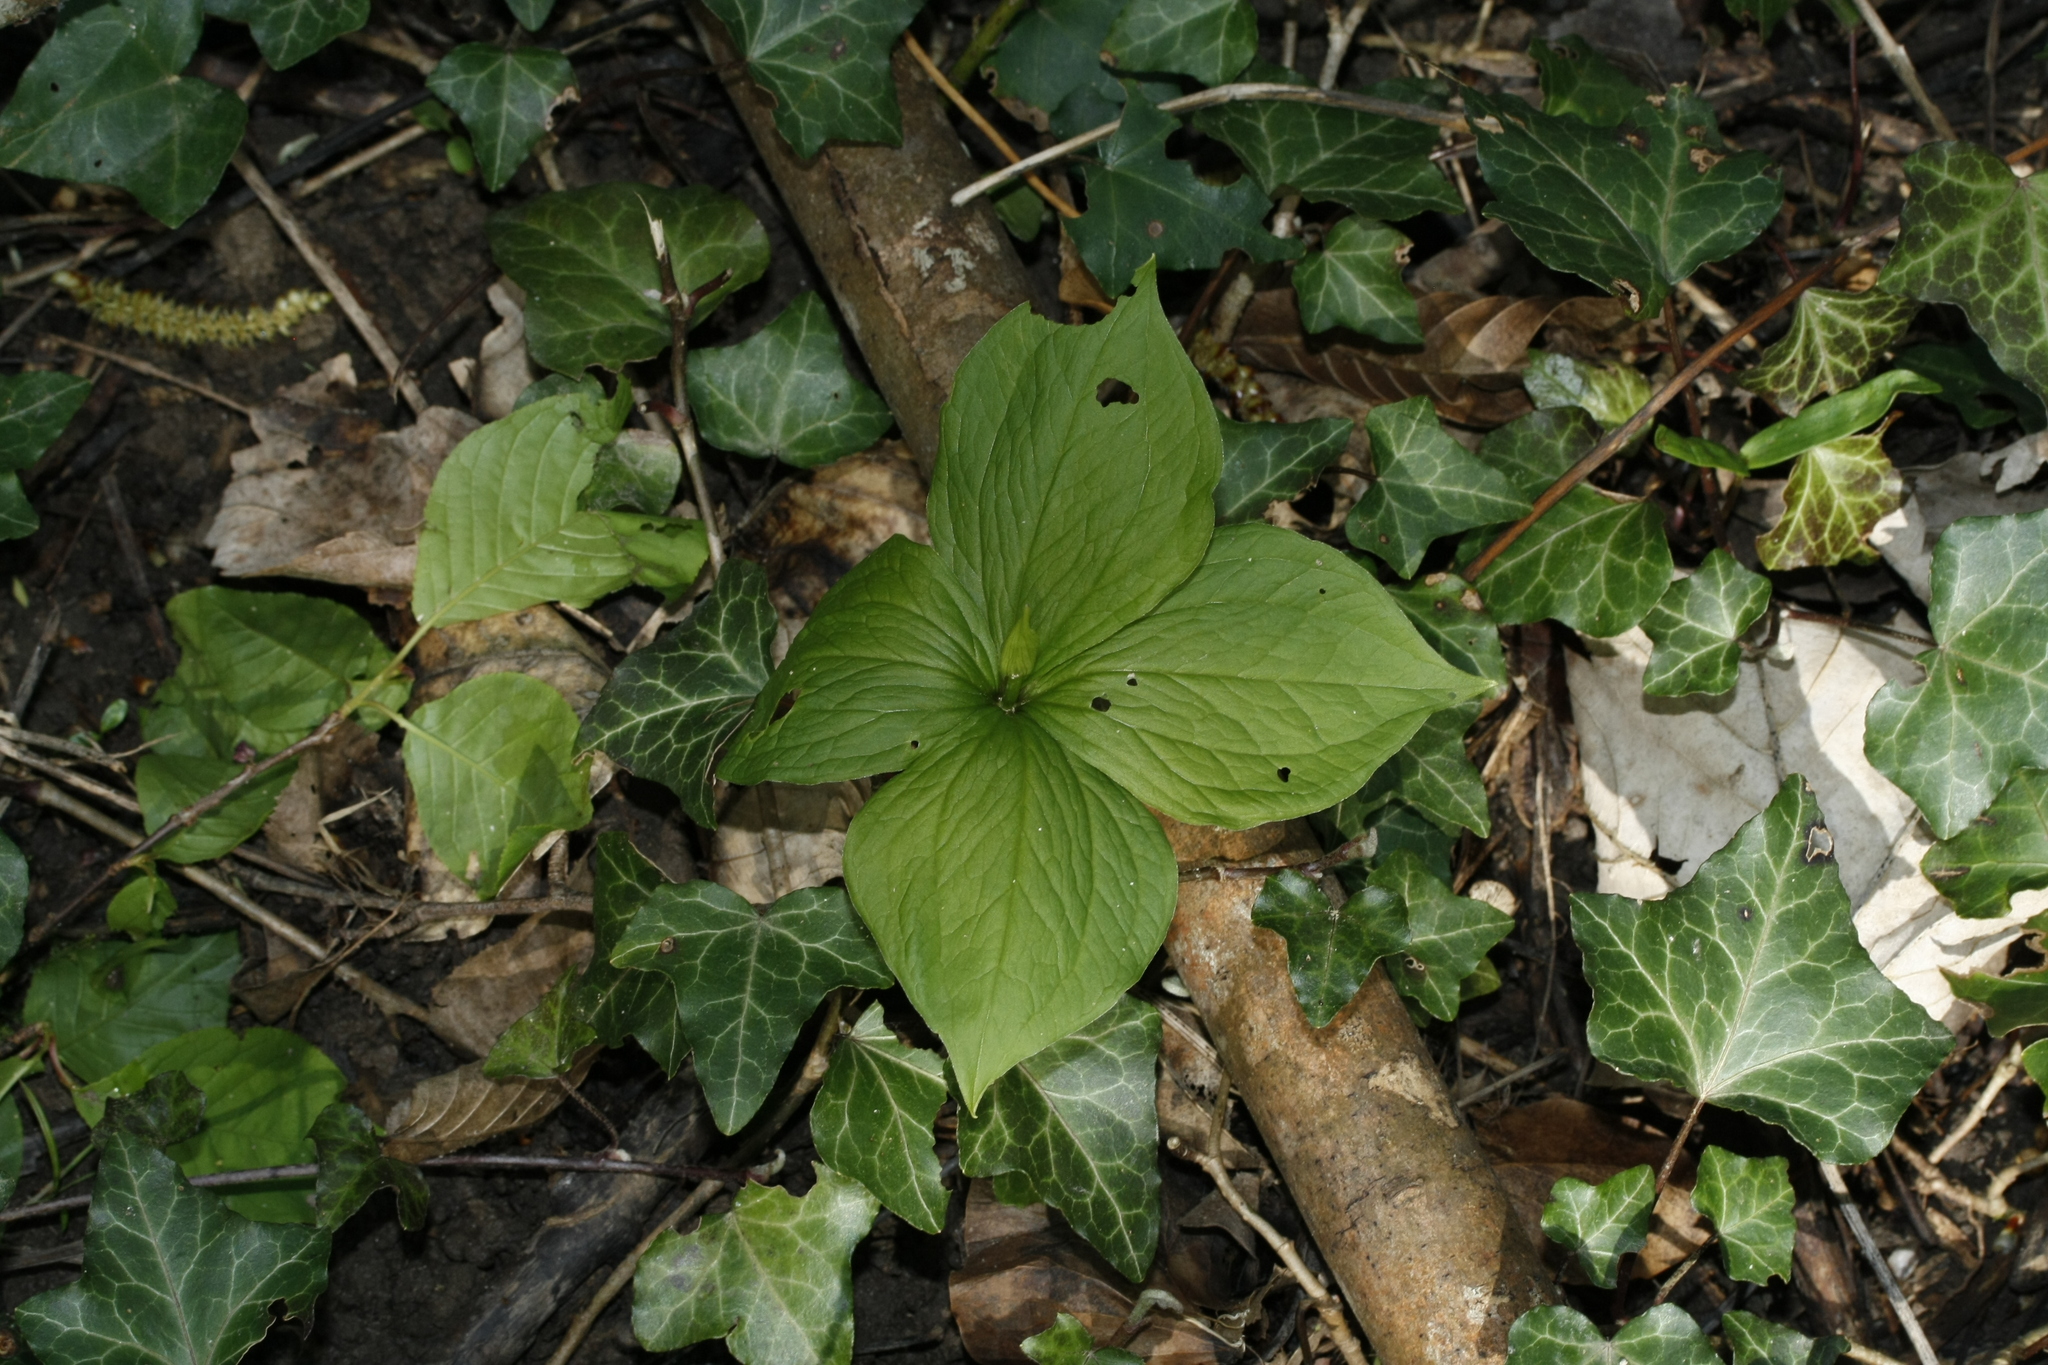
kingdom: Plantae
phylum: Tracheophyta
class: Liliopsida
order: Liliales
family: Melanthiaceae
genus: Paris
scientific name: Paris quadrifolia
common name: Herb-paris
